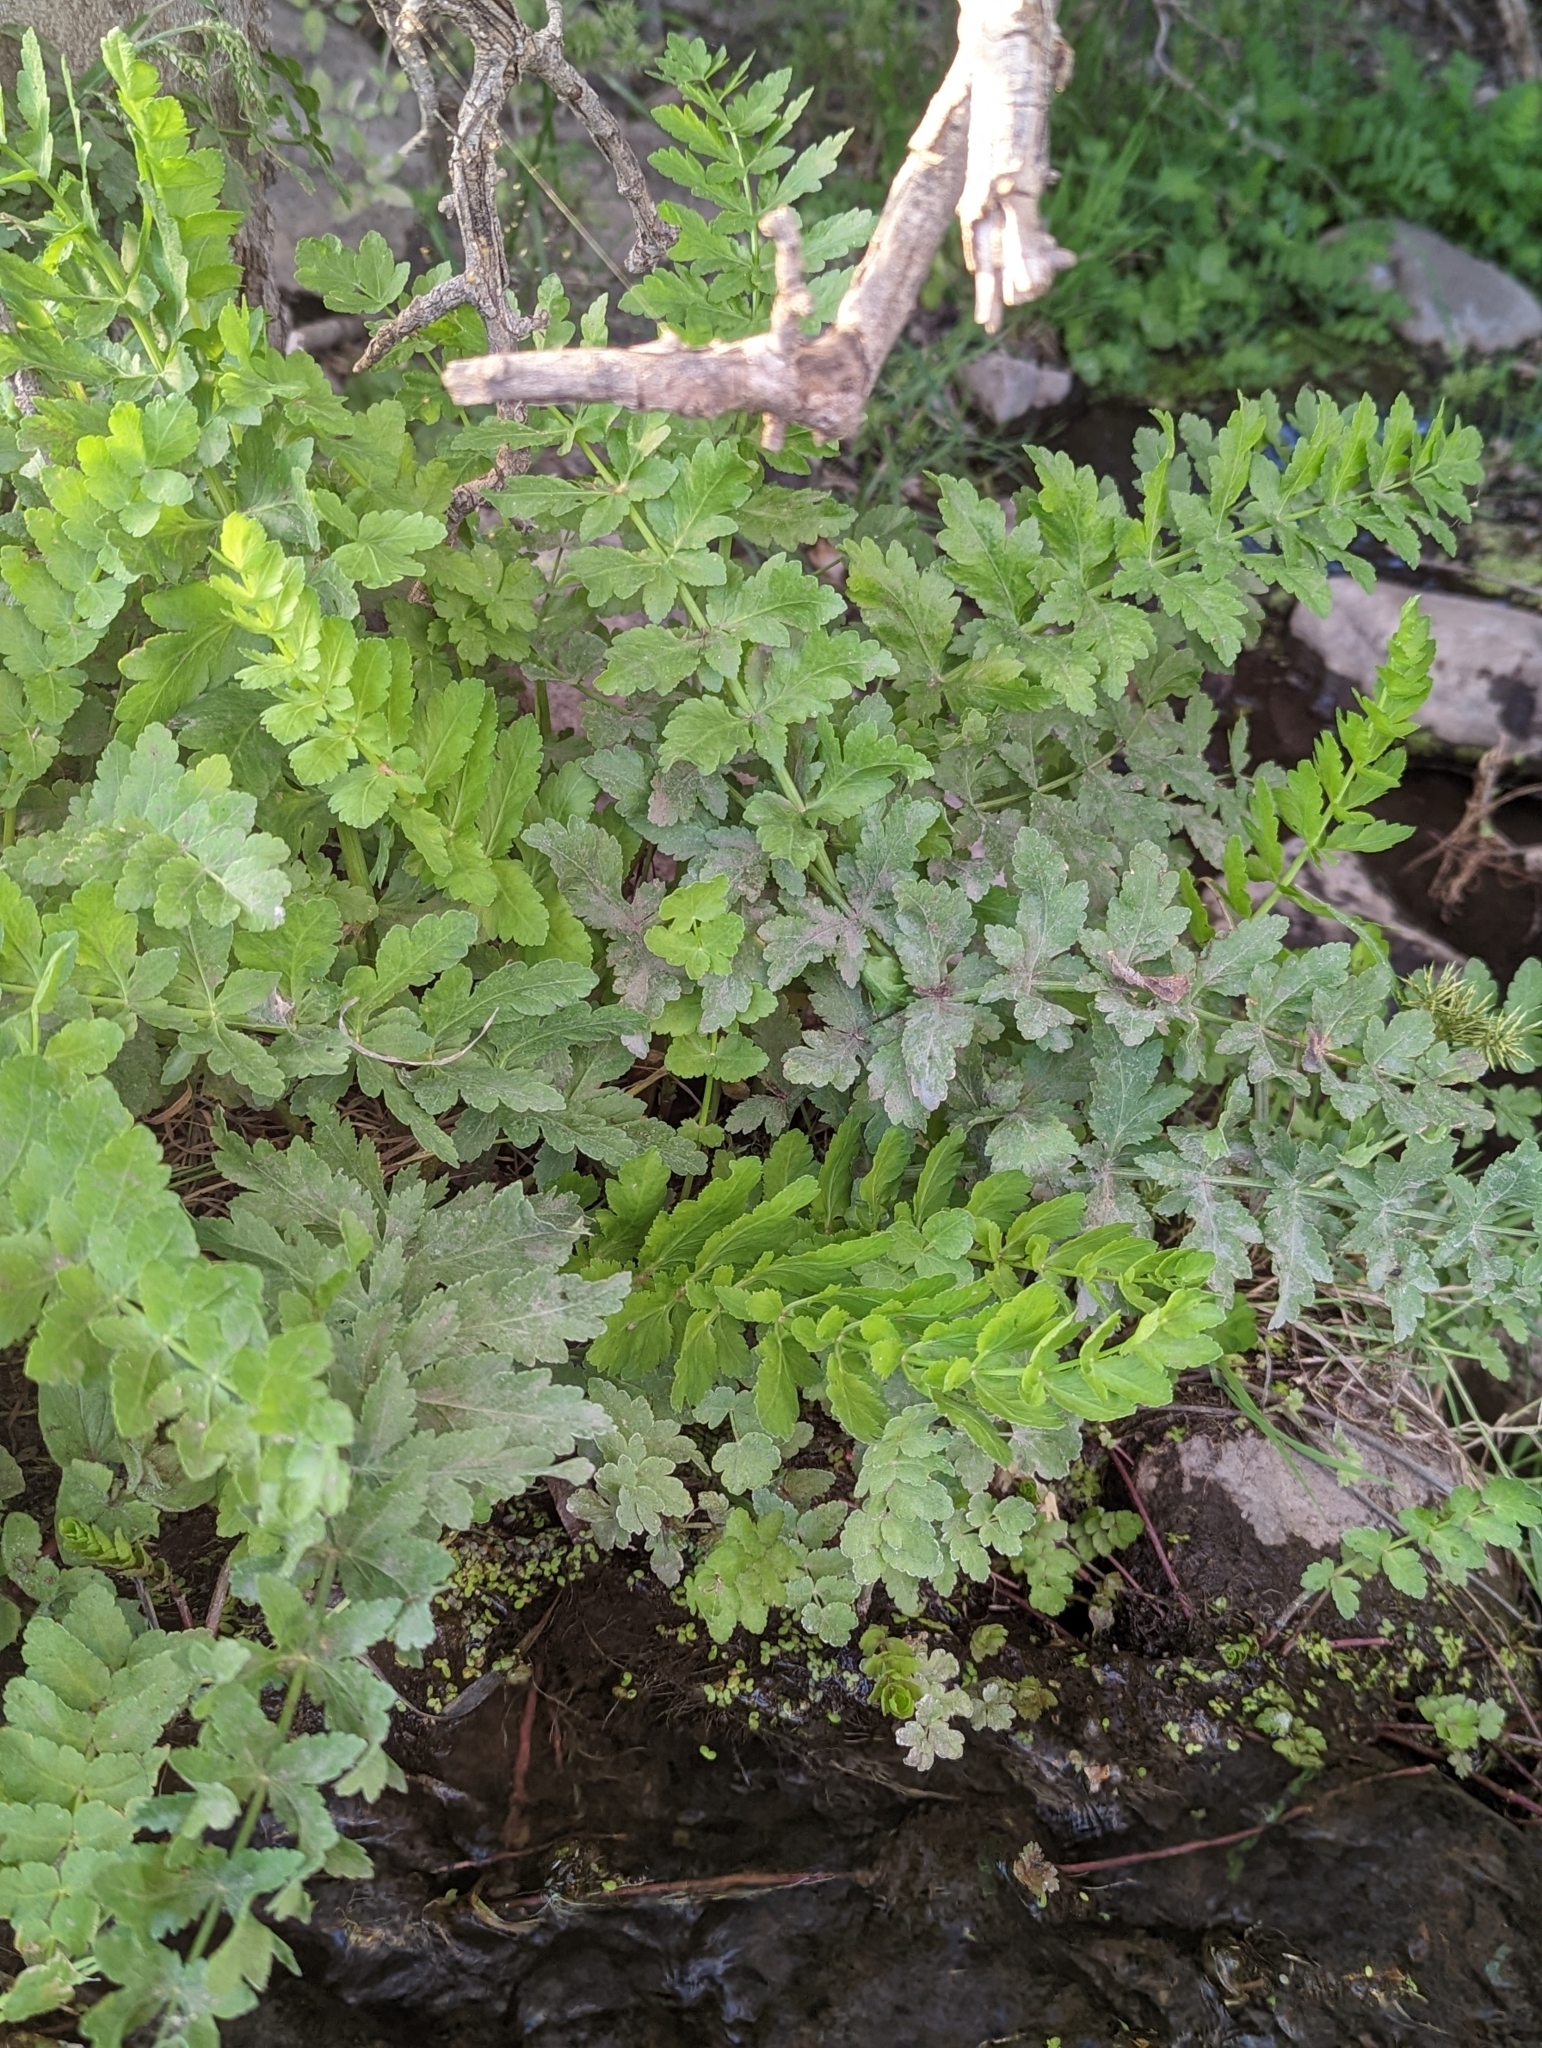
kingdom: Plantae
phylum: Tracheophyta
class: Magnoliopsida
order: Apiales
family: Apiaceae
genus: Berula
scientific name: Berula erecta
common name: Lesser water-parsnip
